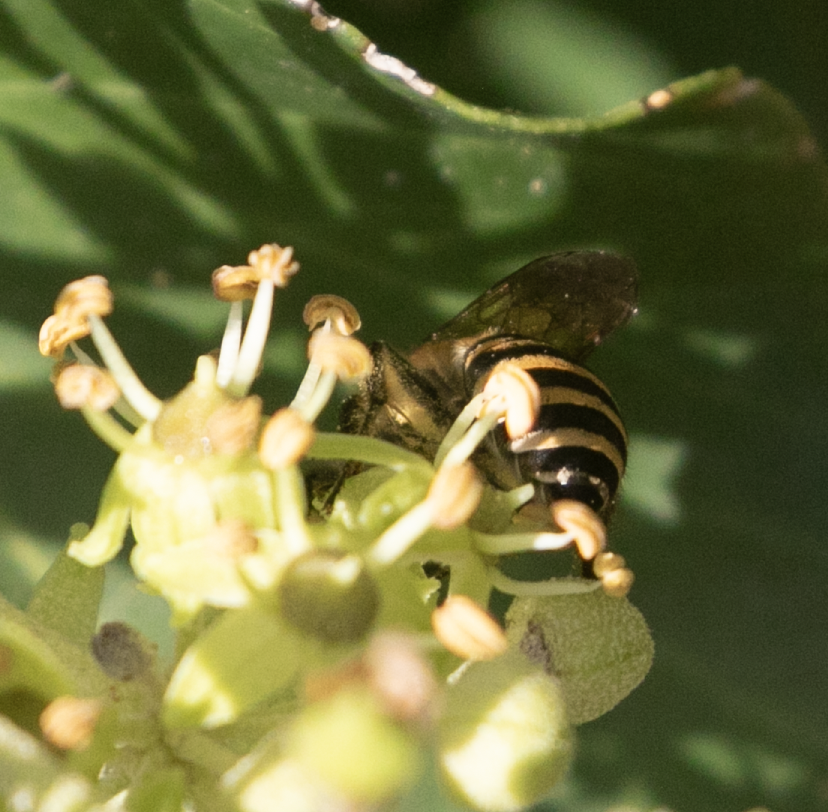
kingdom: Animalia
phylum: Arthropoda
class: Insecta
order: Hymenoptera
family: Colletidae
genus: Colletes
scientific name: Colletes hederae
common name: Ivy bee
